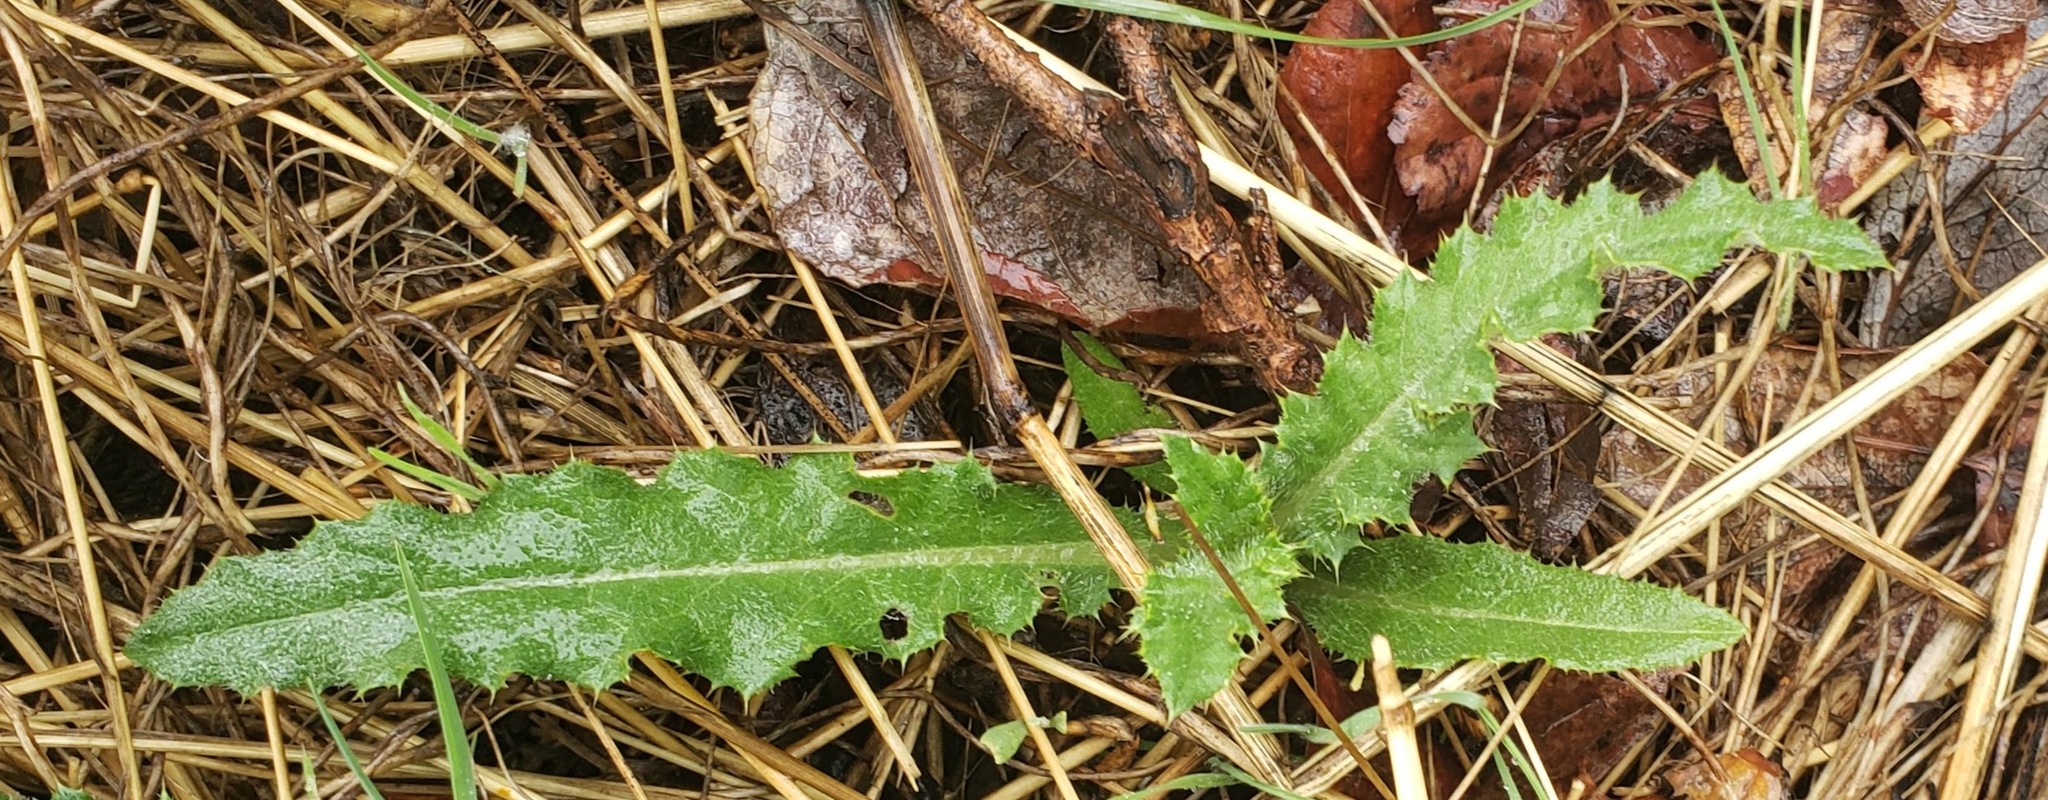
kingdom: Plantae
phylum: Tracheophyta
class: Magnoliopsida
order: Asterales
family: Asteraceae
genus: Cirsium
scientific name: Cirsium arvense
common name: Creeping thistle
